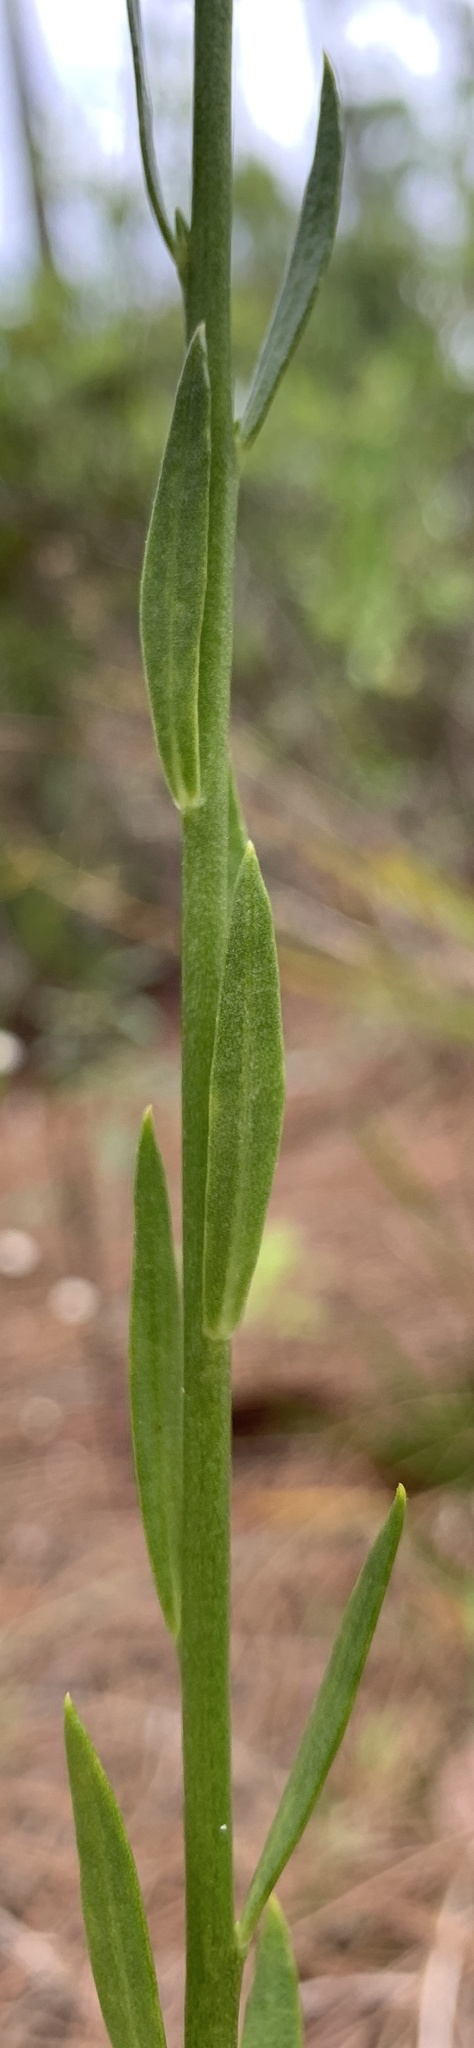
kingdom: Plantae
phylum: Tracheophyta
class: Magnoliopsida
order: Fabales
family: Polygalaceae
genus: Polygala
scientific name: Polygala rugelii
